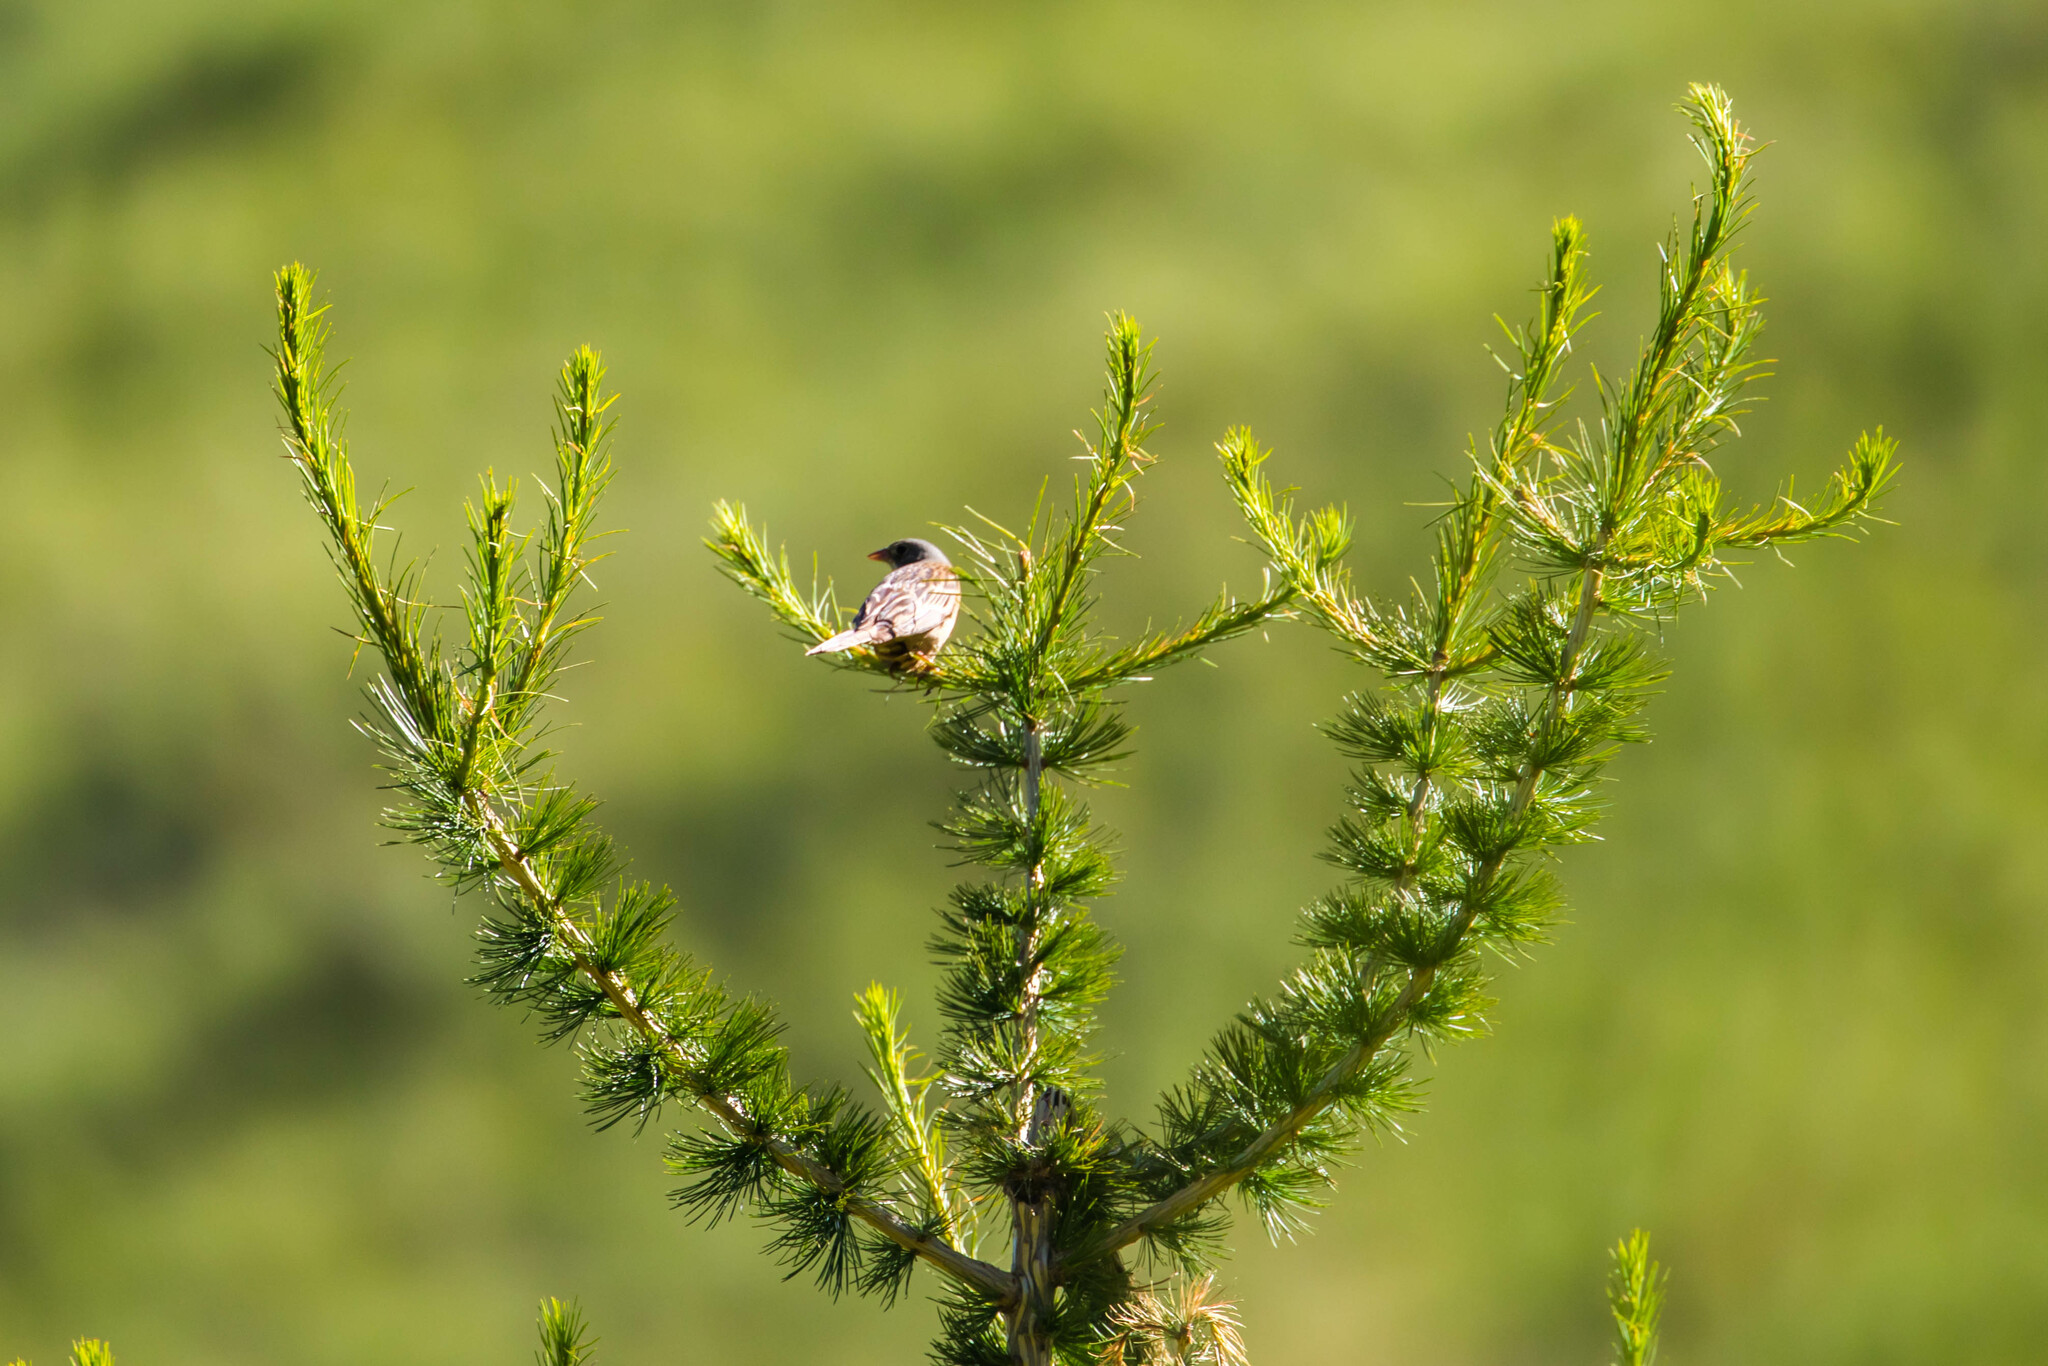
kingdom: Animalia
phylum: Chordata
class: Aves
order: Passeriformes
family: Emberizidae
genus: Emberiza
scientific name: Emberiza hortulana
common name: Ortolan bunting
